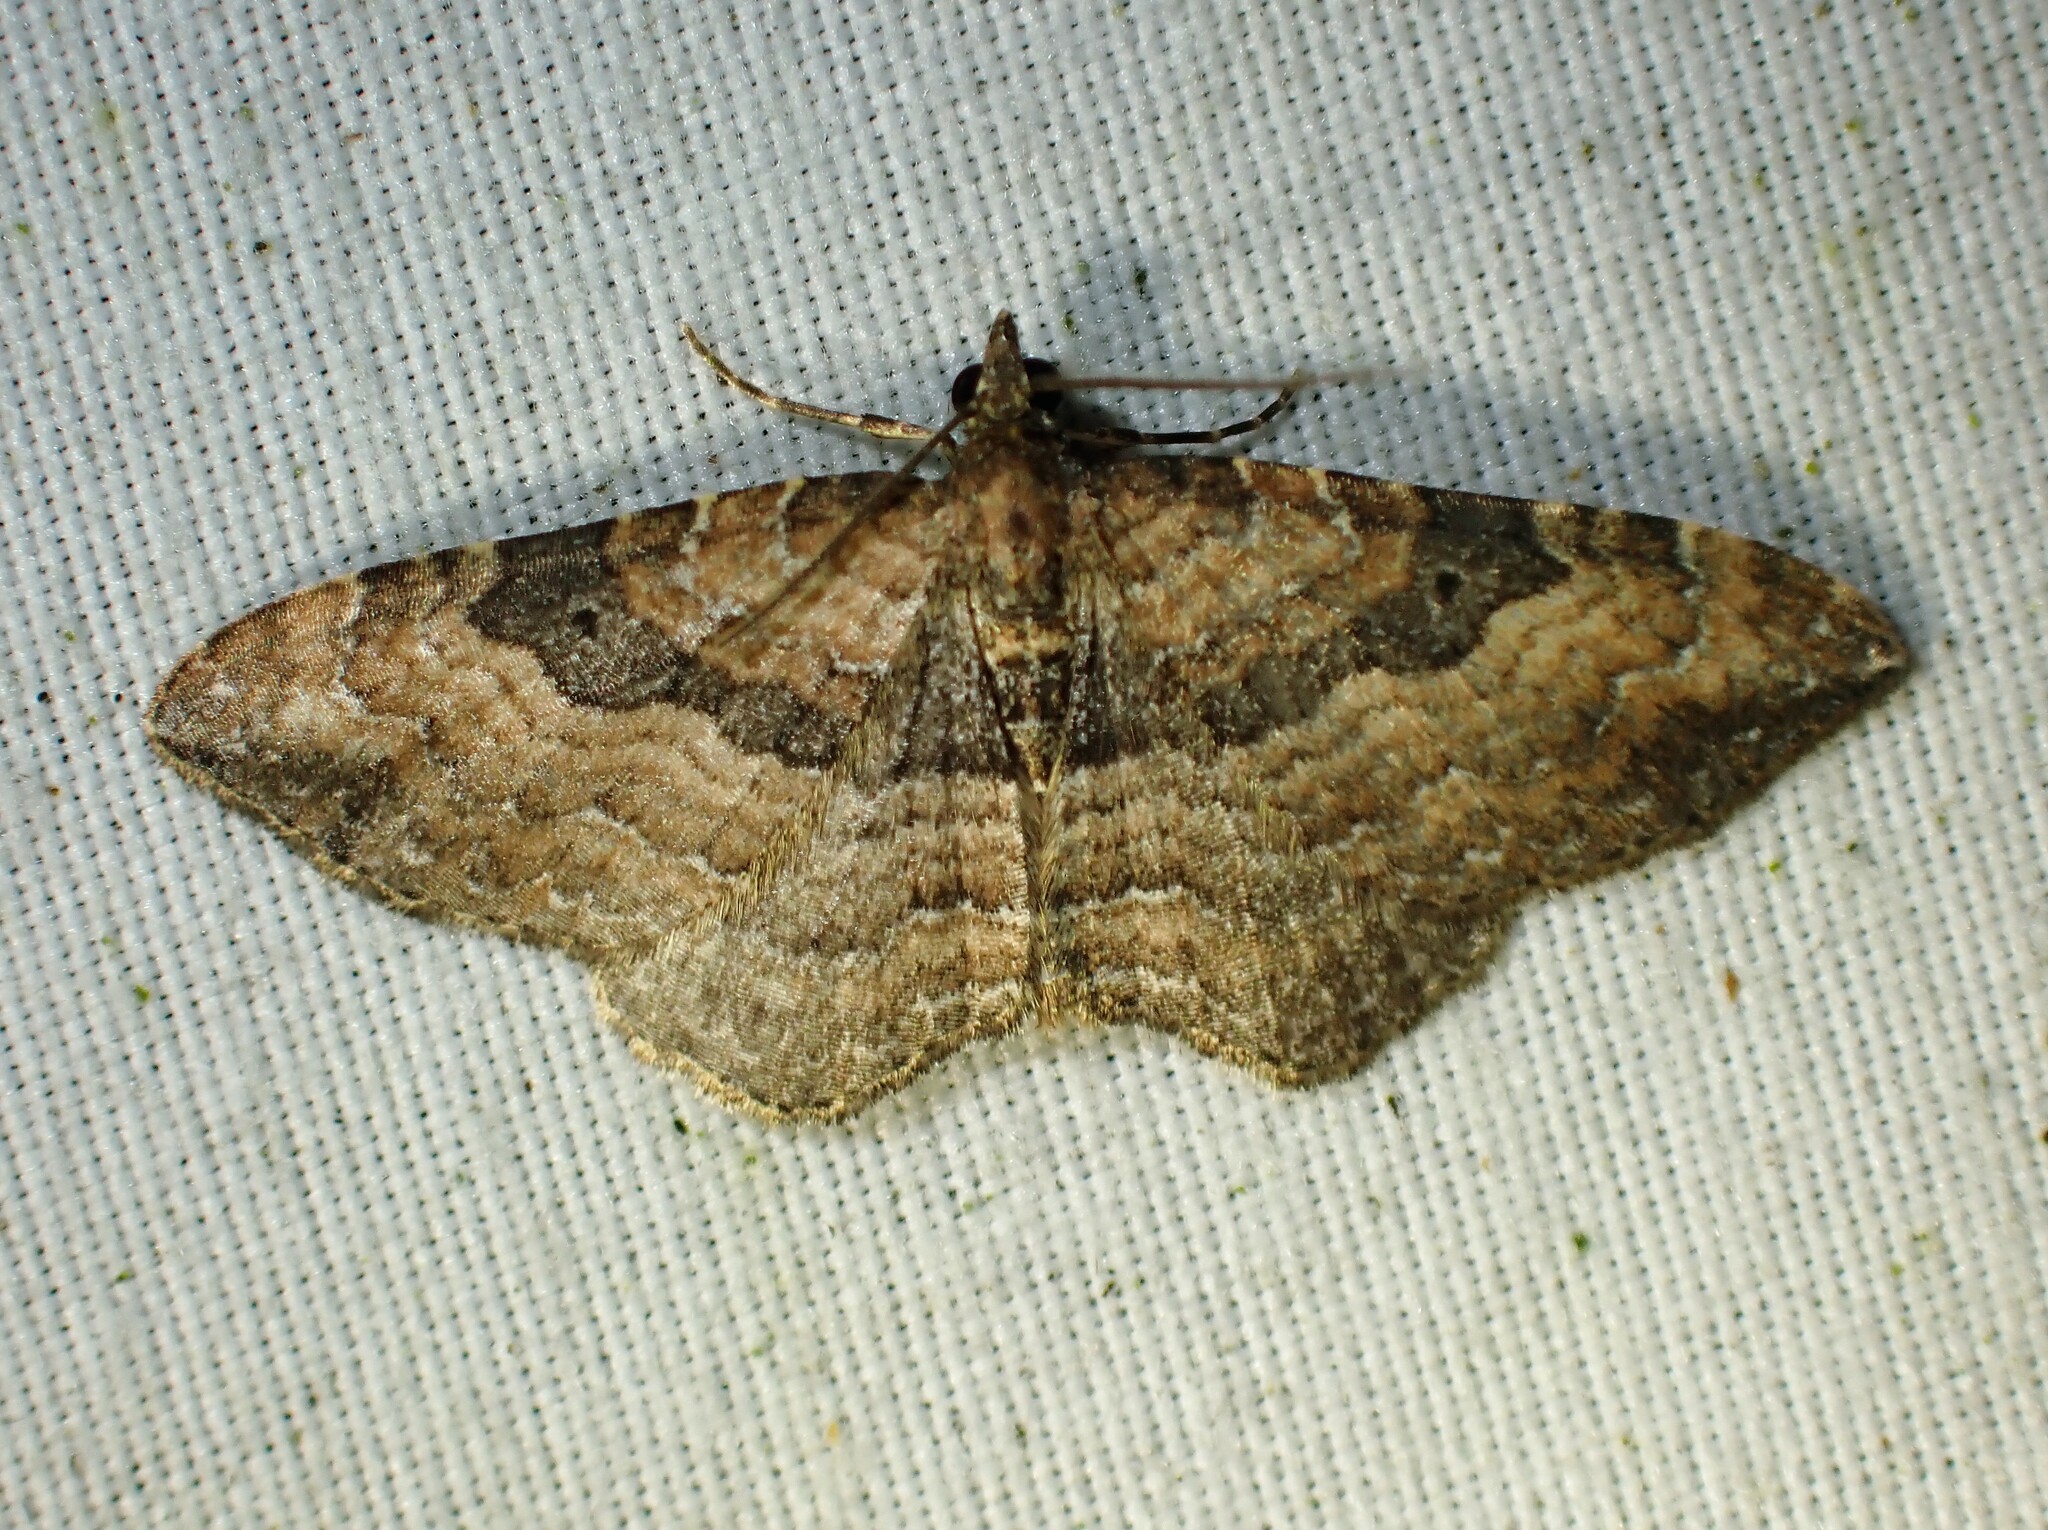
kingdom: Animalia
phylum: Arthropoda
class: Insecta
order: Lepidoptera
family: Geometridae
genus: Orthonama
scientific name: Orthonama obstipata
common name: The gem
